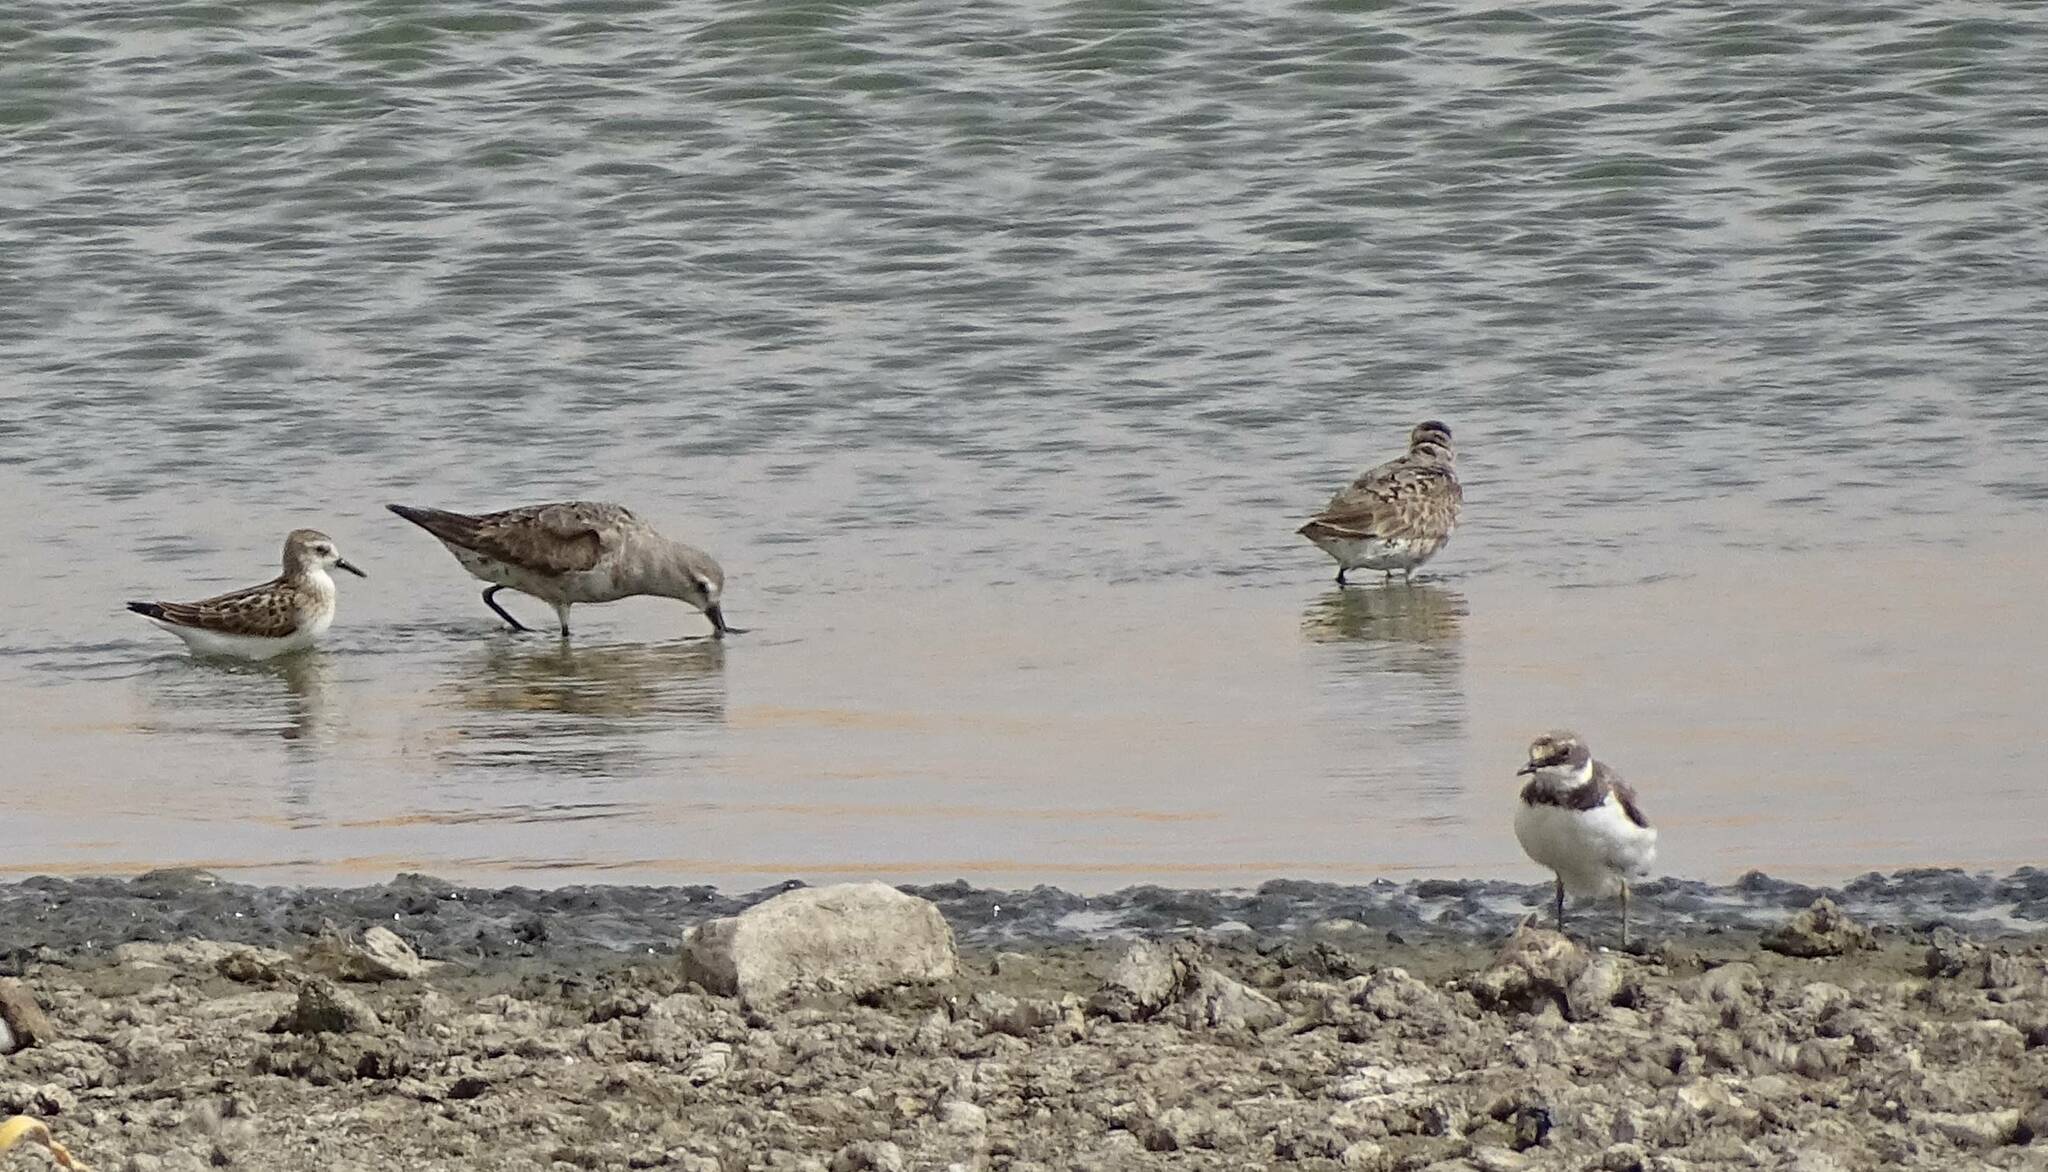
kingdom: Animalia
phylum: Chordata
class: Aves
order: Charadriiformes
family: Scolopacidae
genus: Calidris
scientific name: Calidris minuta
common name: Little stint
